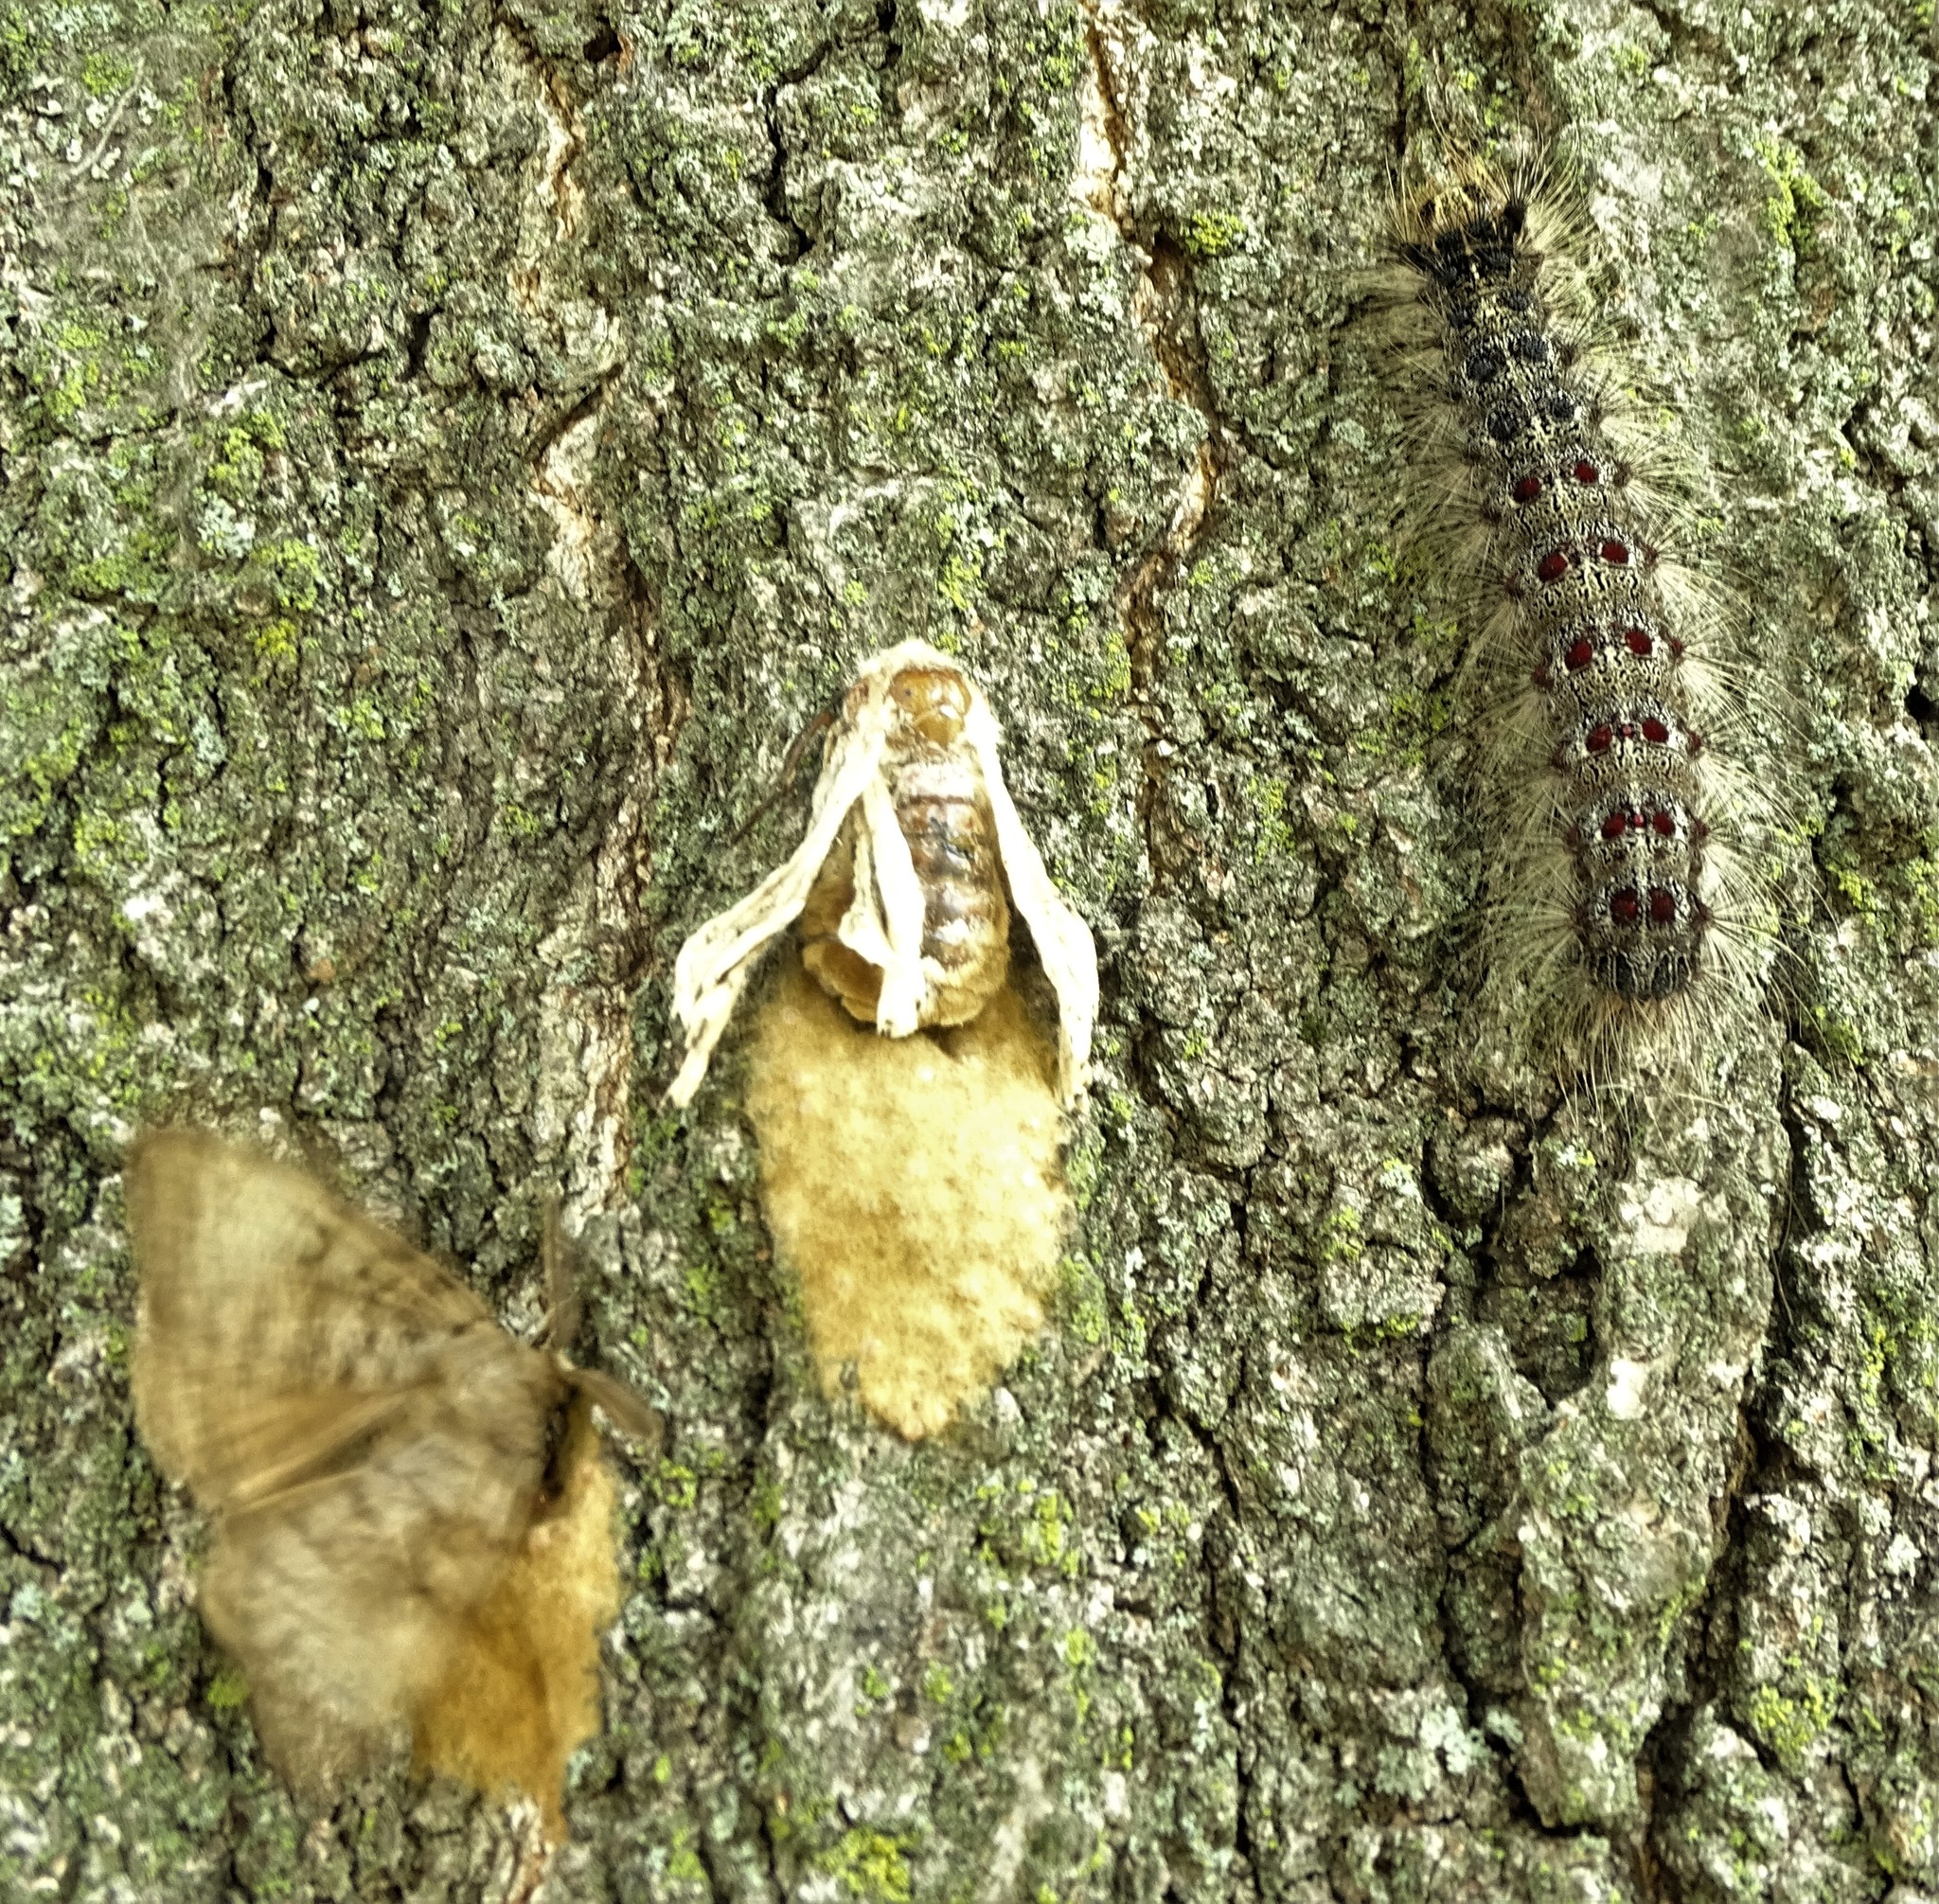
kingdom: Animalia
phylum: Arthropoda
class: Insecta
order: Lepidoptera
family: Erebidae
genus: Lymantria
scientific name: Lymantria dispar
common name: Gypsy moth
